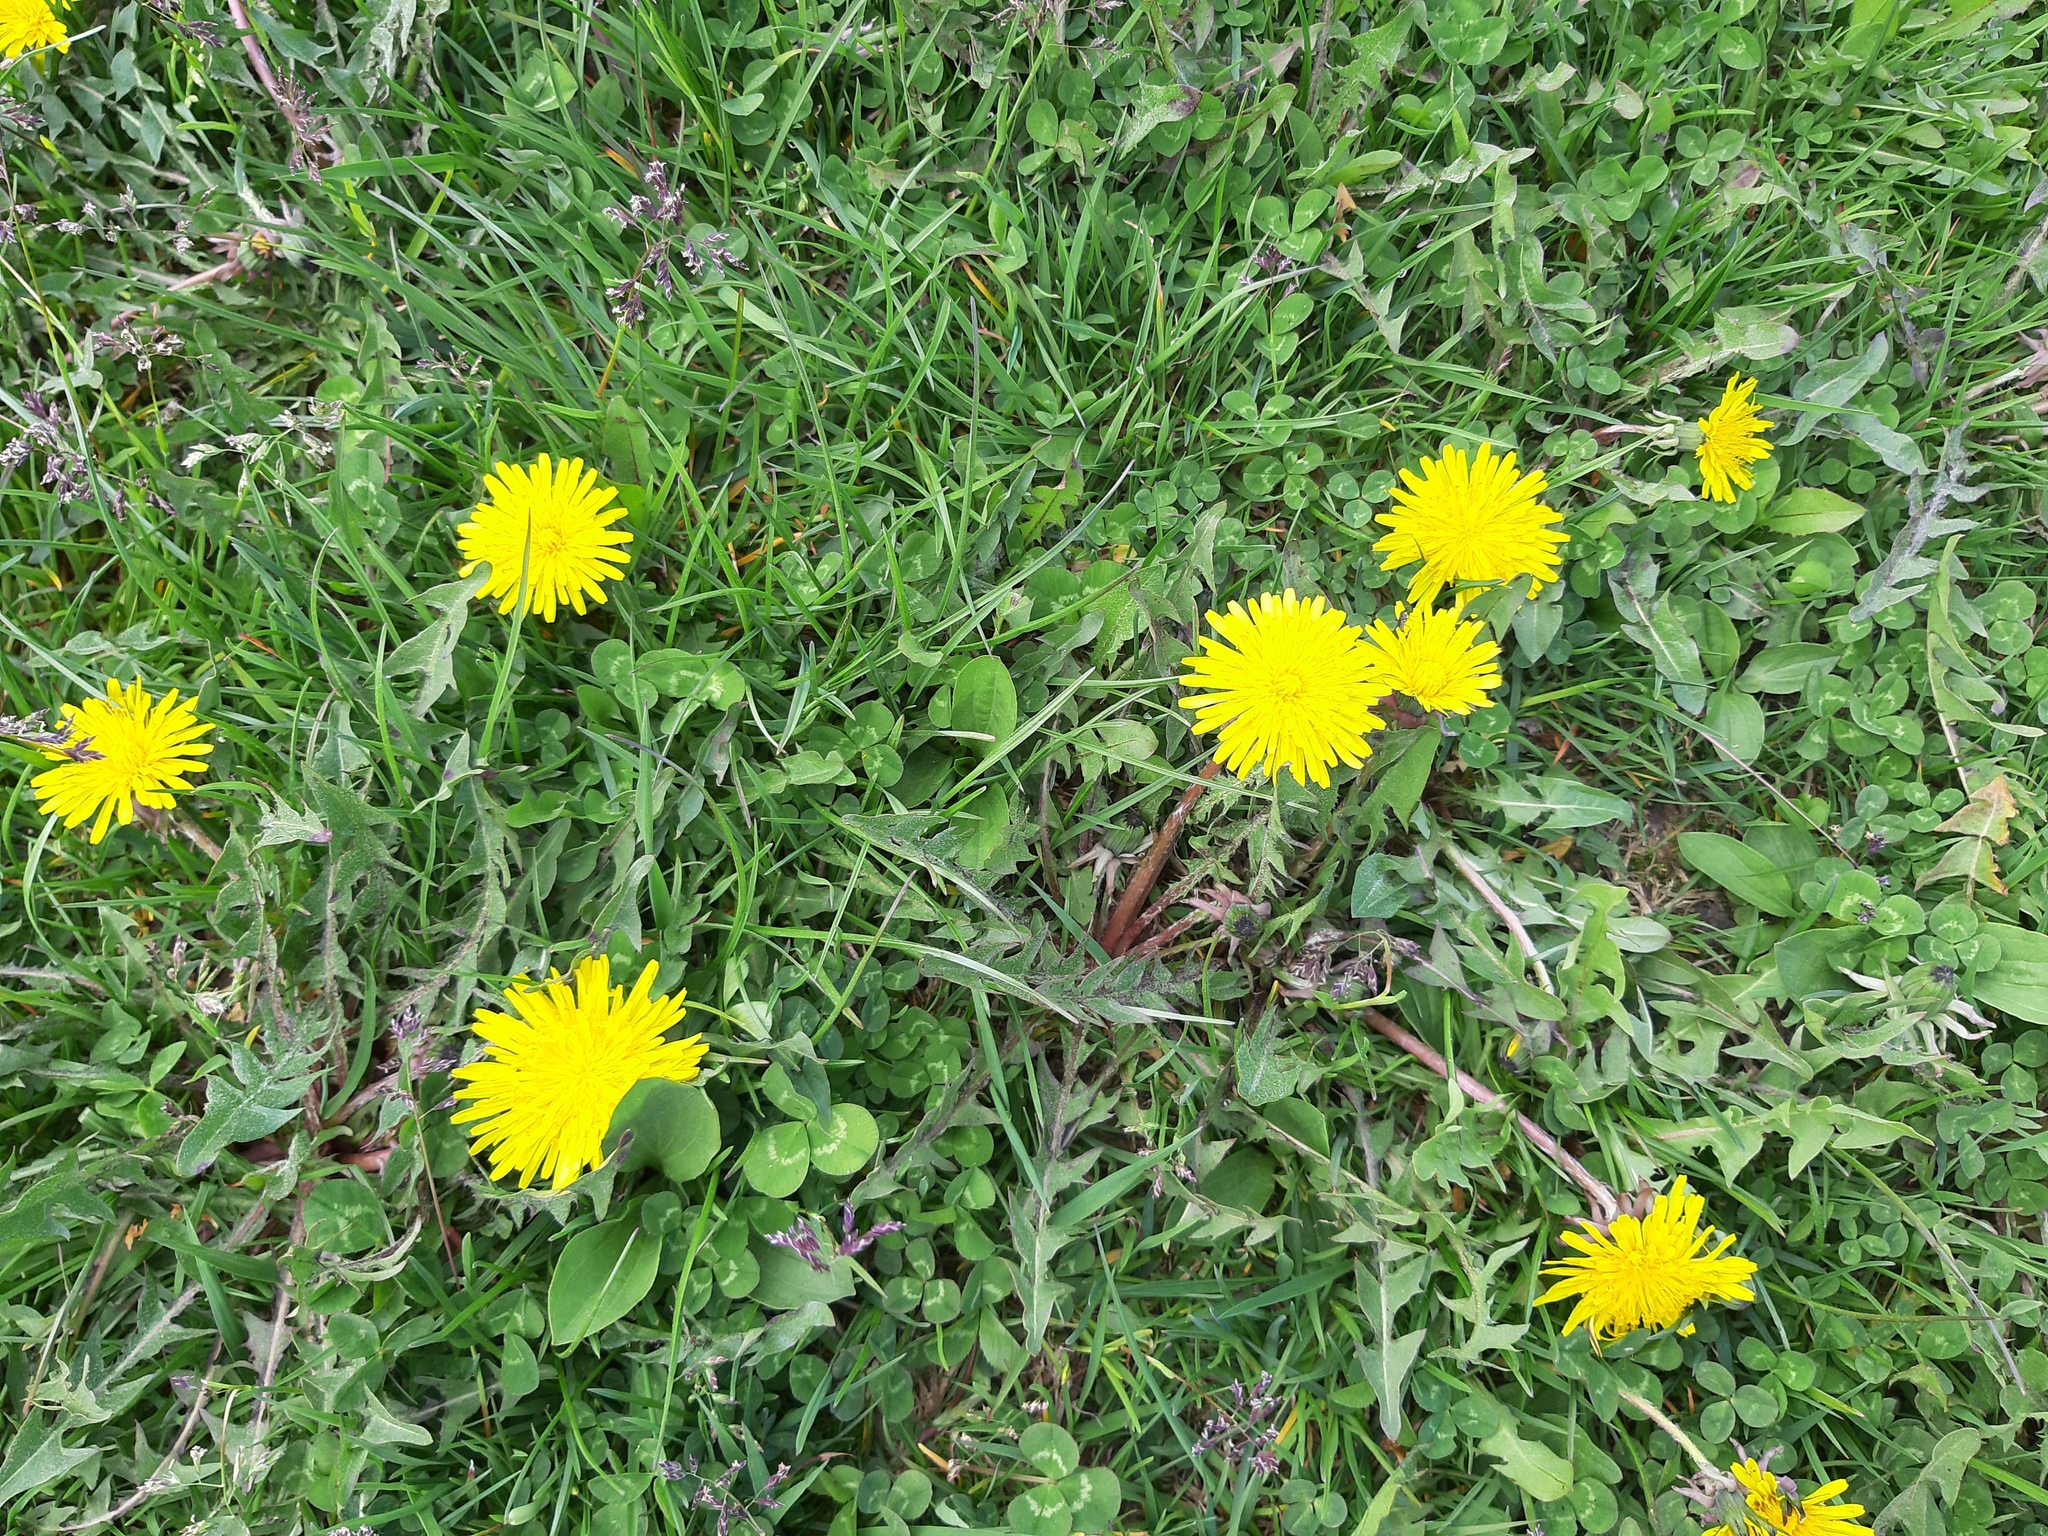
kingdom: Plantae
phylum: Tracheophyta
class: Magnoliopsida
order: Asterales
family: Asteraceae
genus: Taraxacum
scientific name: Taraxacum officinale
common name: Common dandelion
